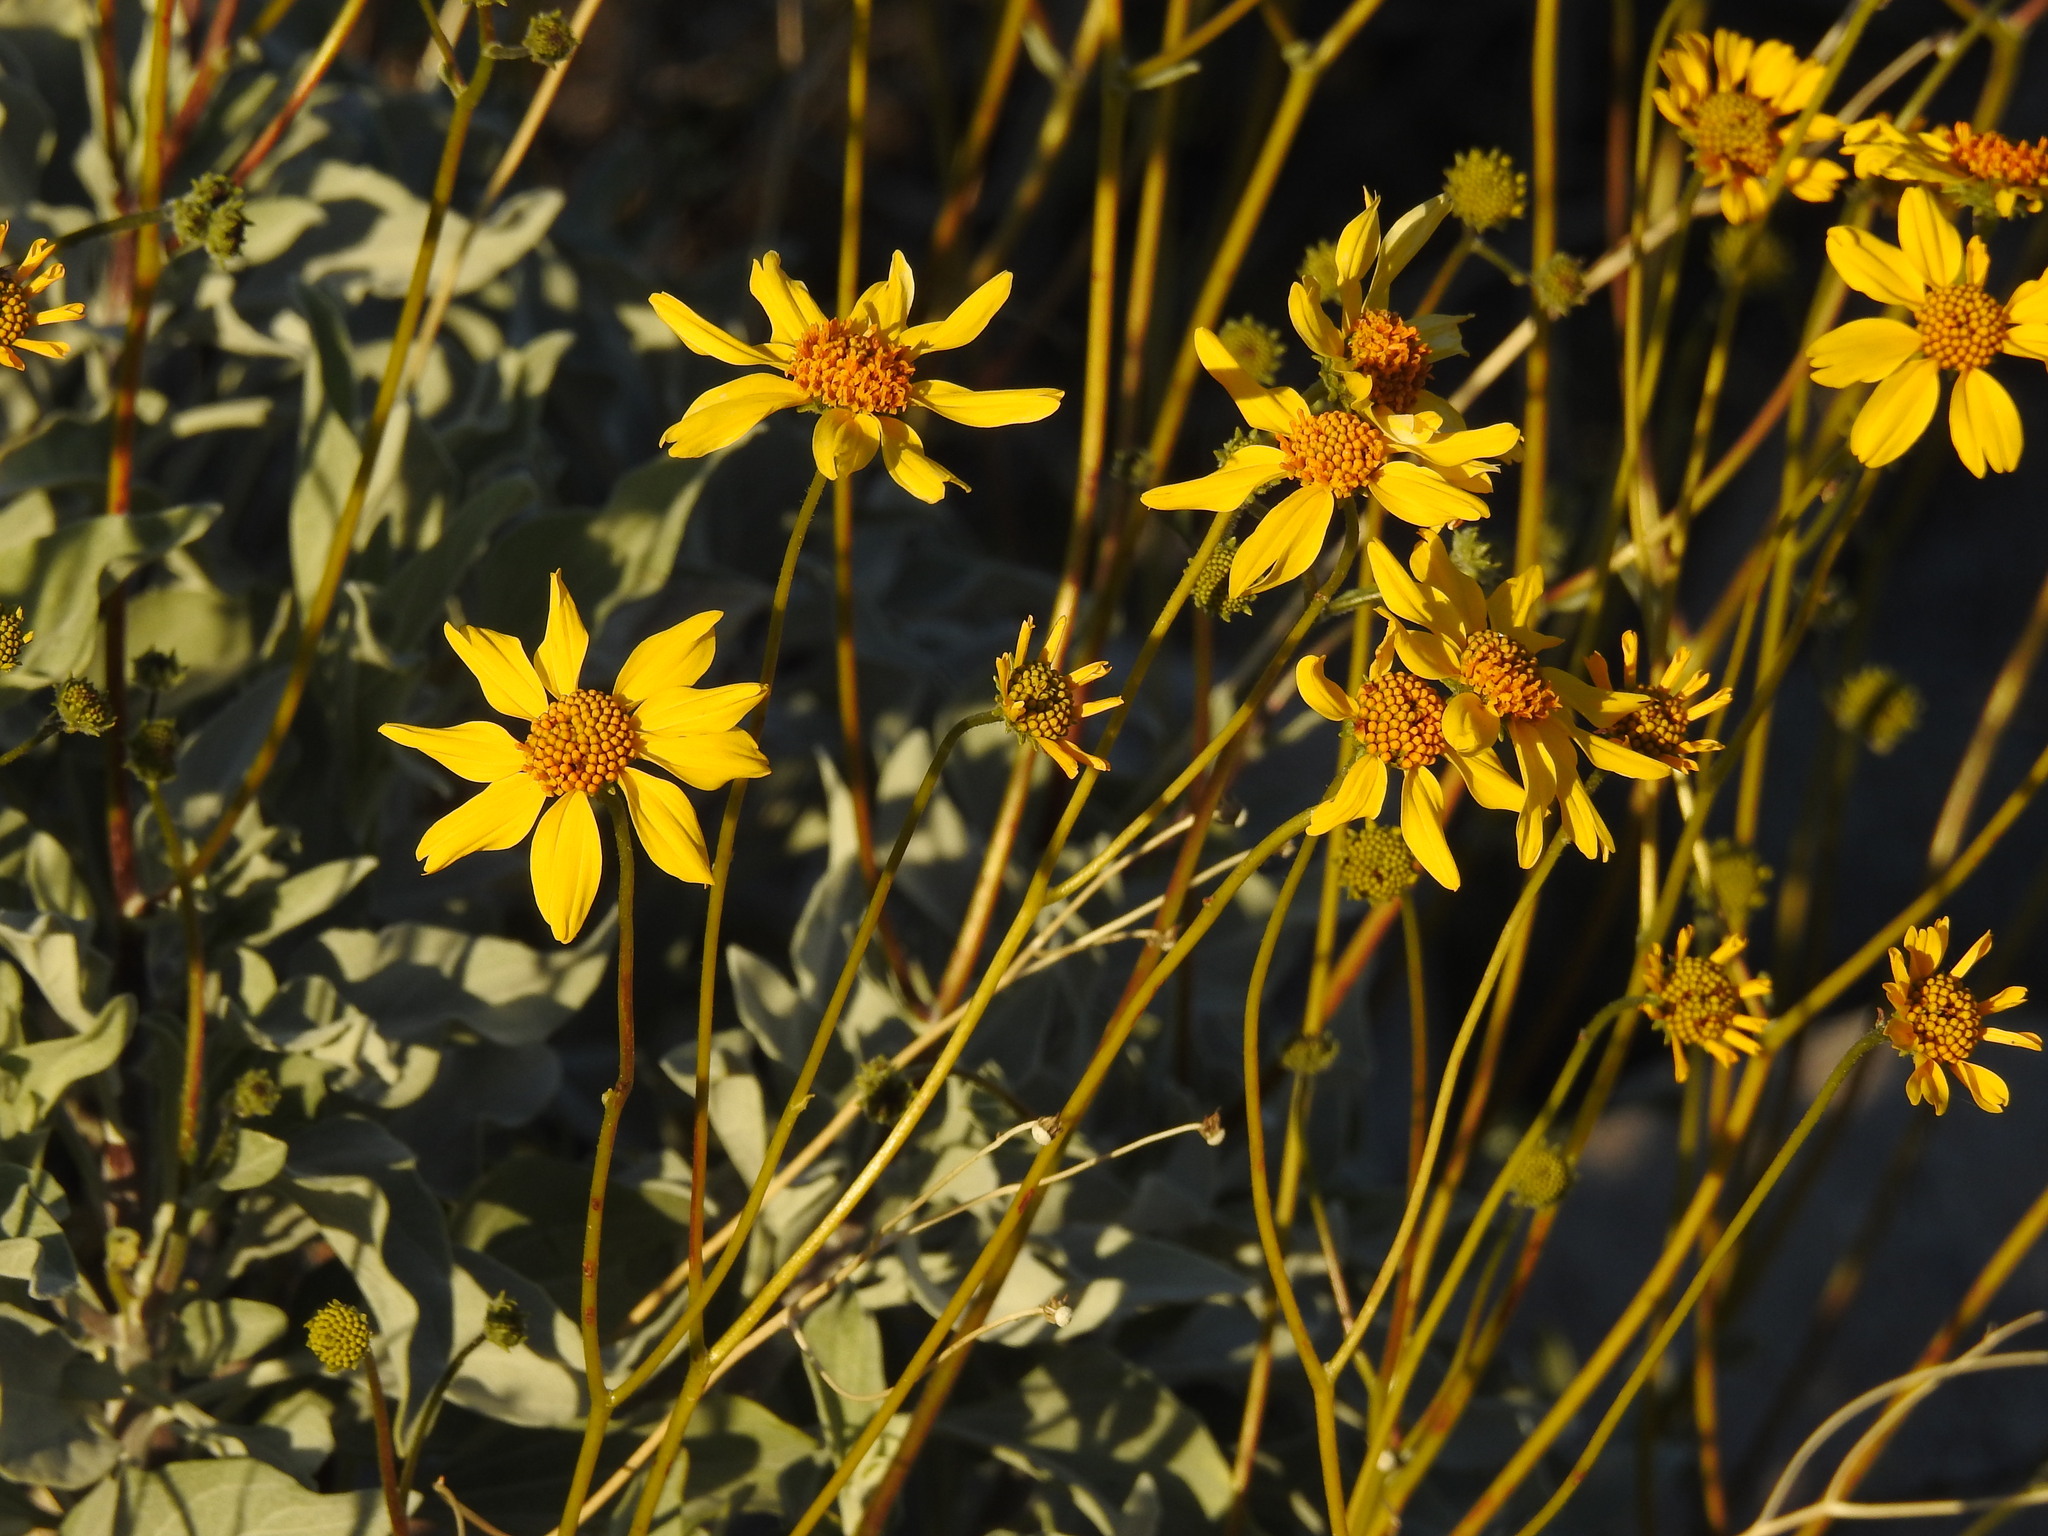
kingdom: Plantae
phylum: Tracheophyta
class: Magnoliopsida
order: Asterales
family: Asteraceae
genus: Encelia
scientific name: Encelia farinosa
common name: Brittlebush
